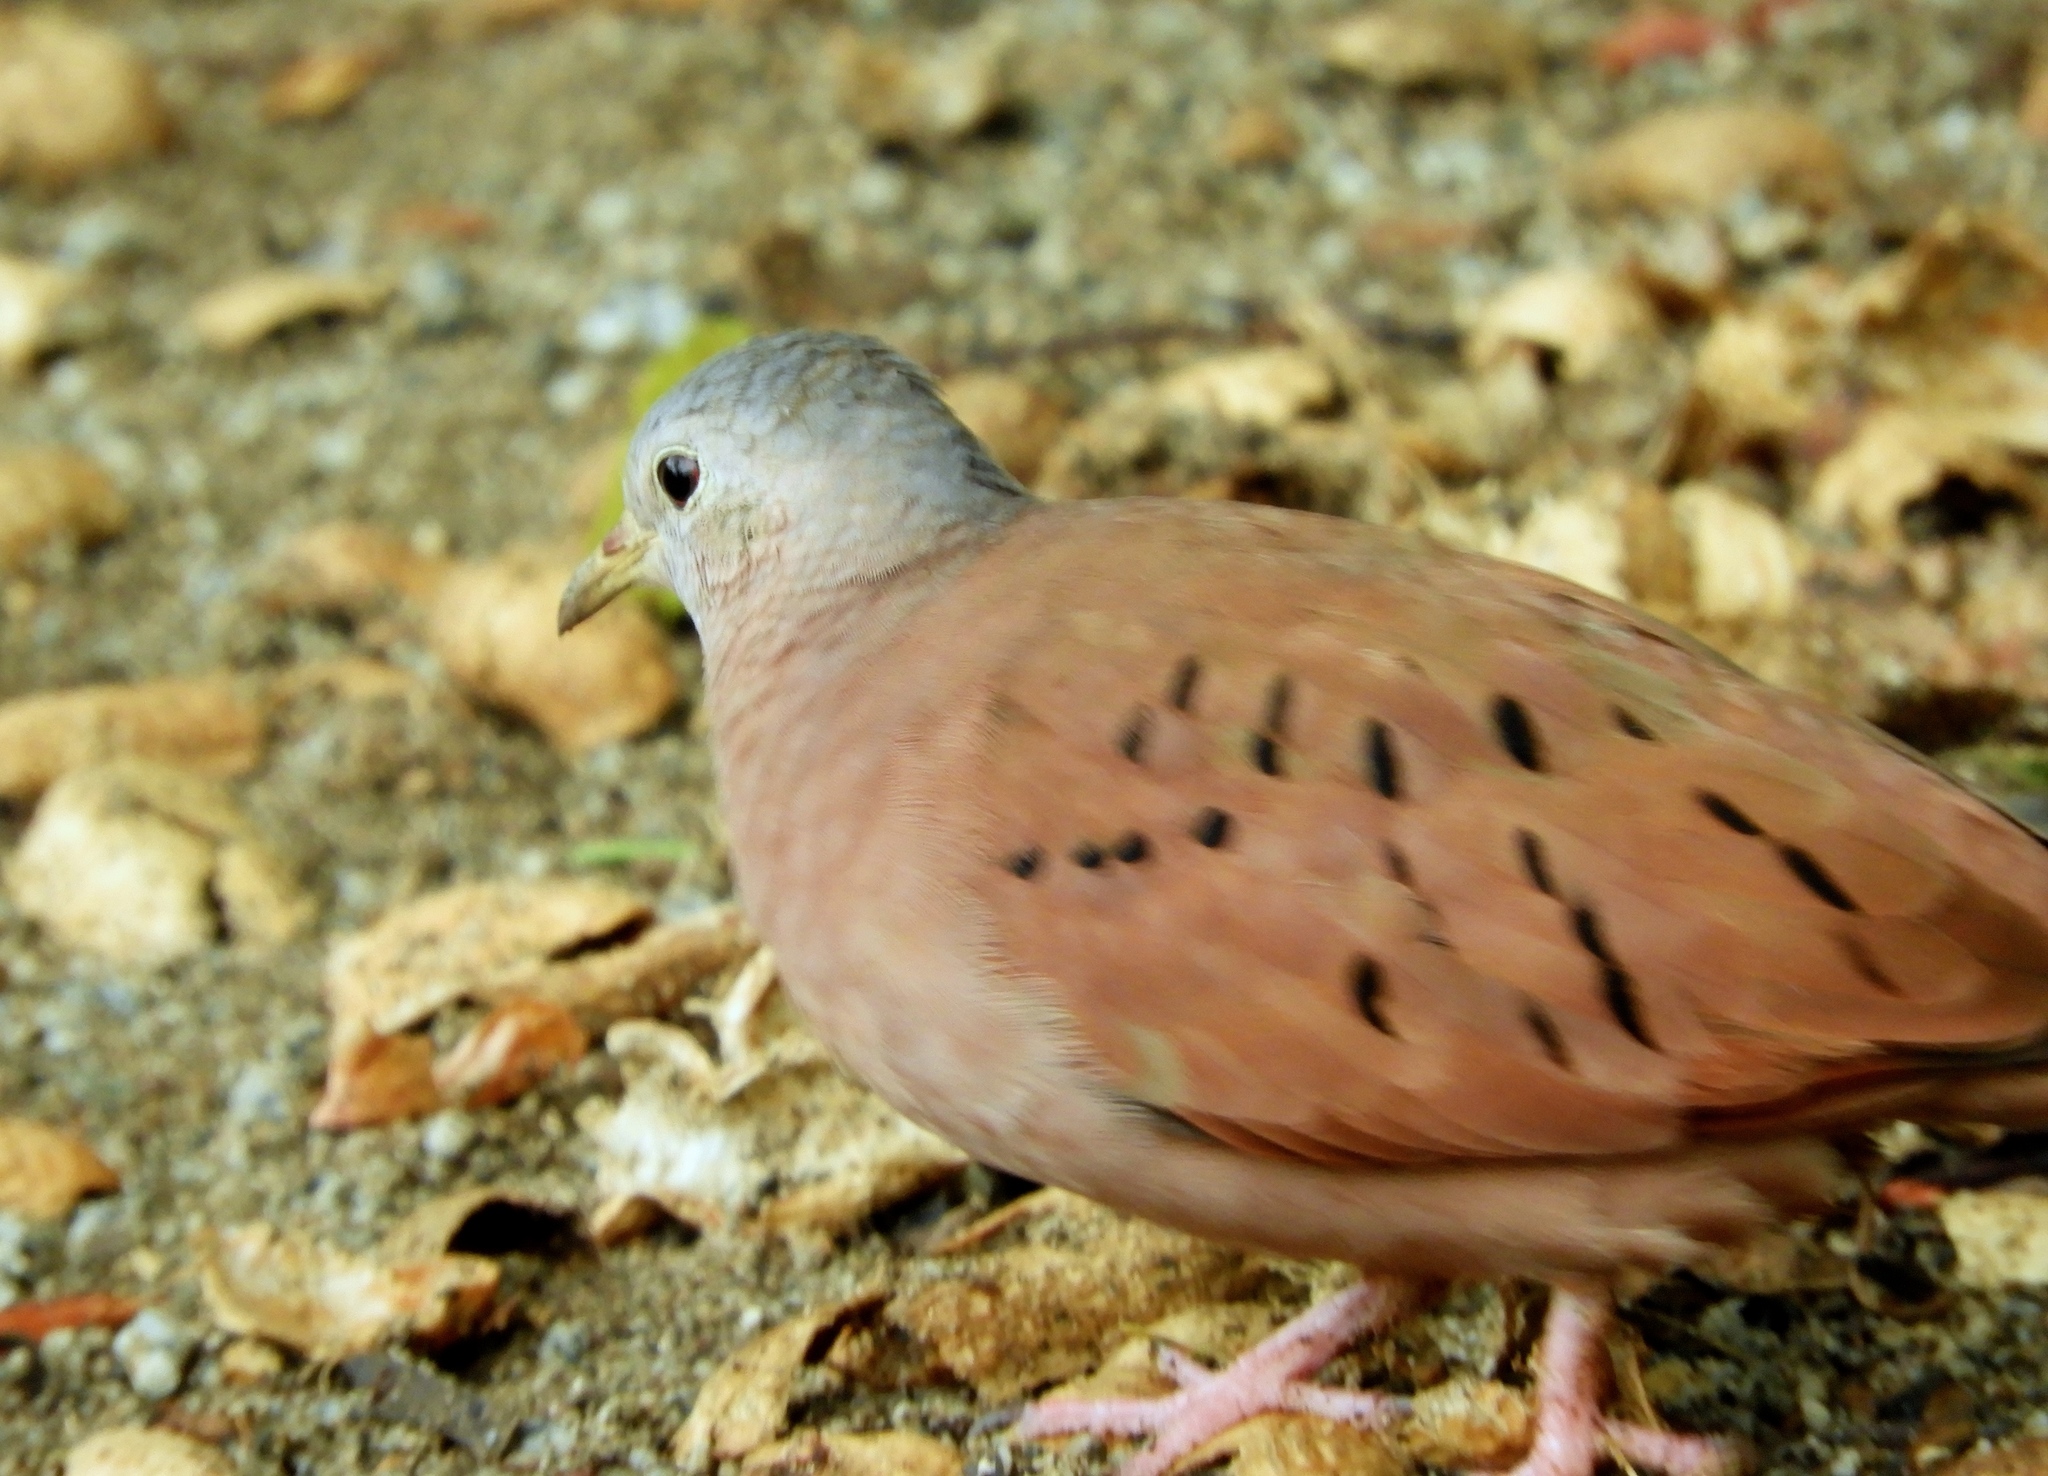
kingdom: Animalia
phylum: Chordata
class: Aves
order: Columbiformes
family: Columbidae
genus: Columbina
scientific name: Columbina talpacoti
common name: Ruddy ground dove
